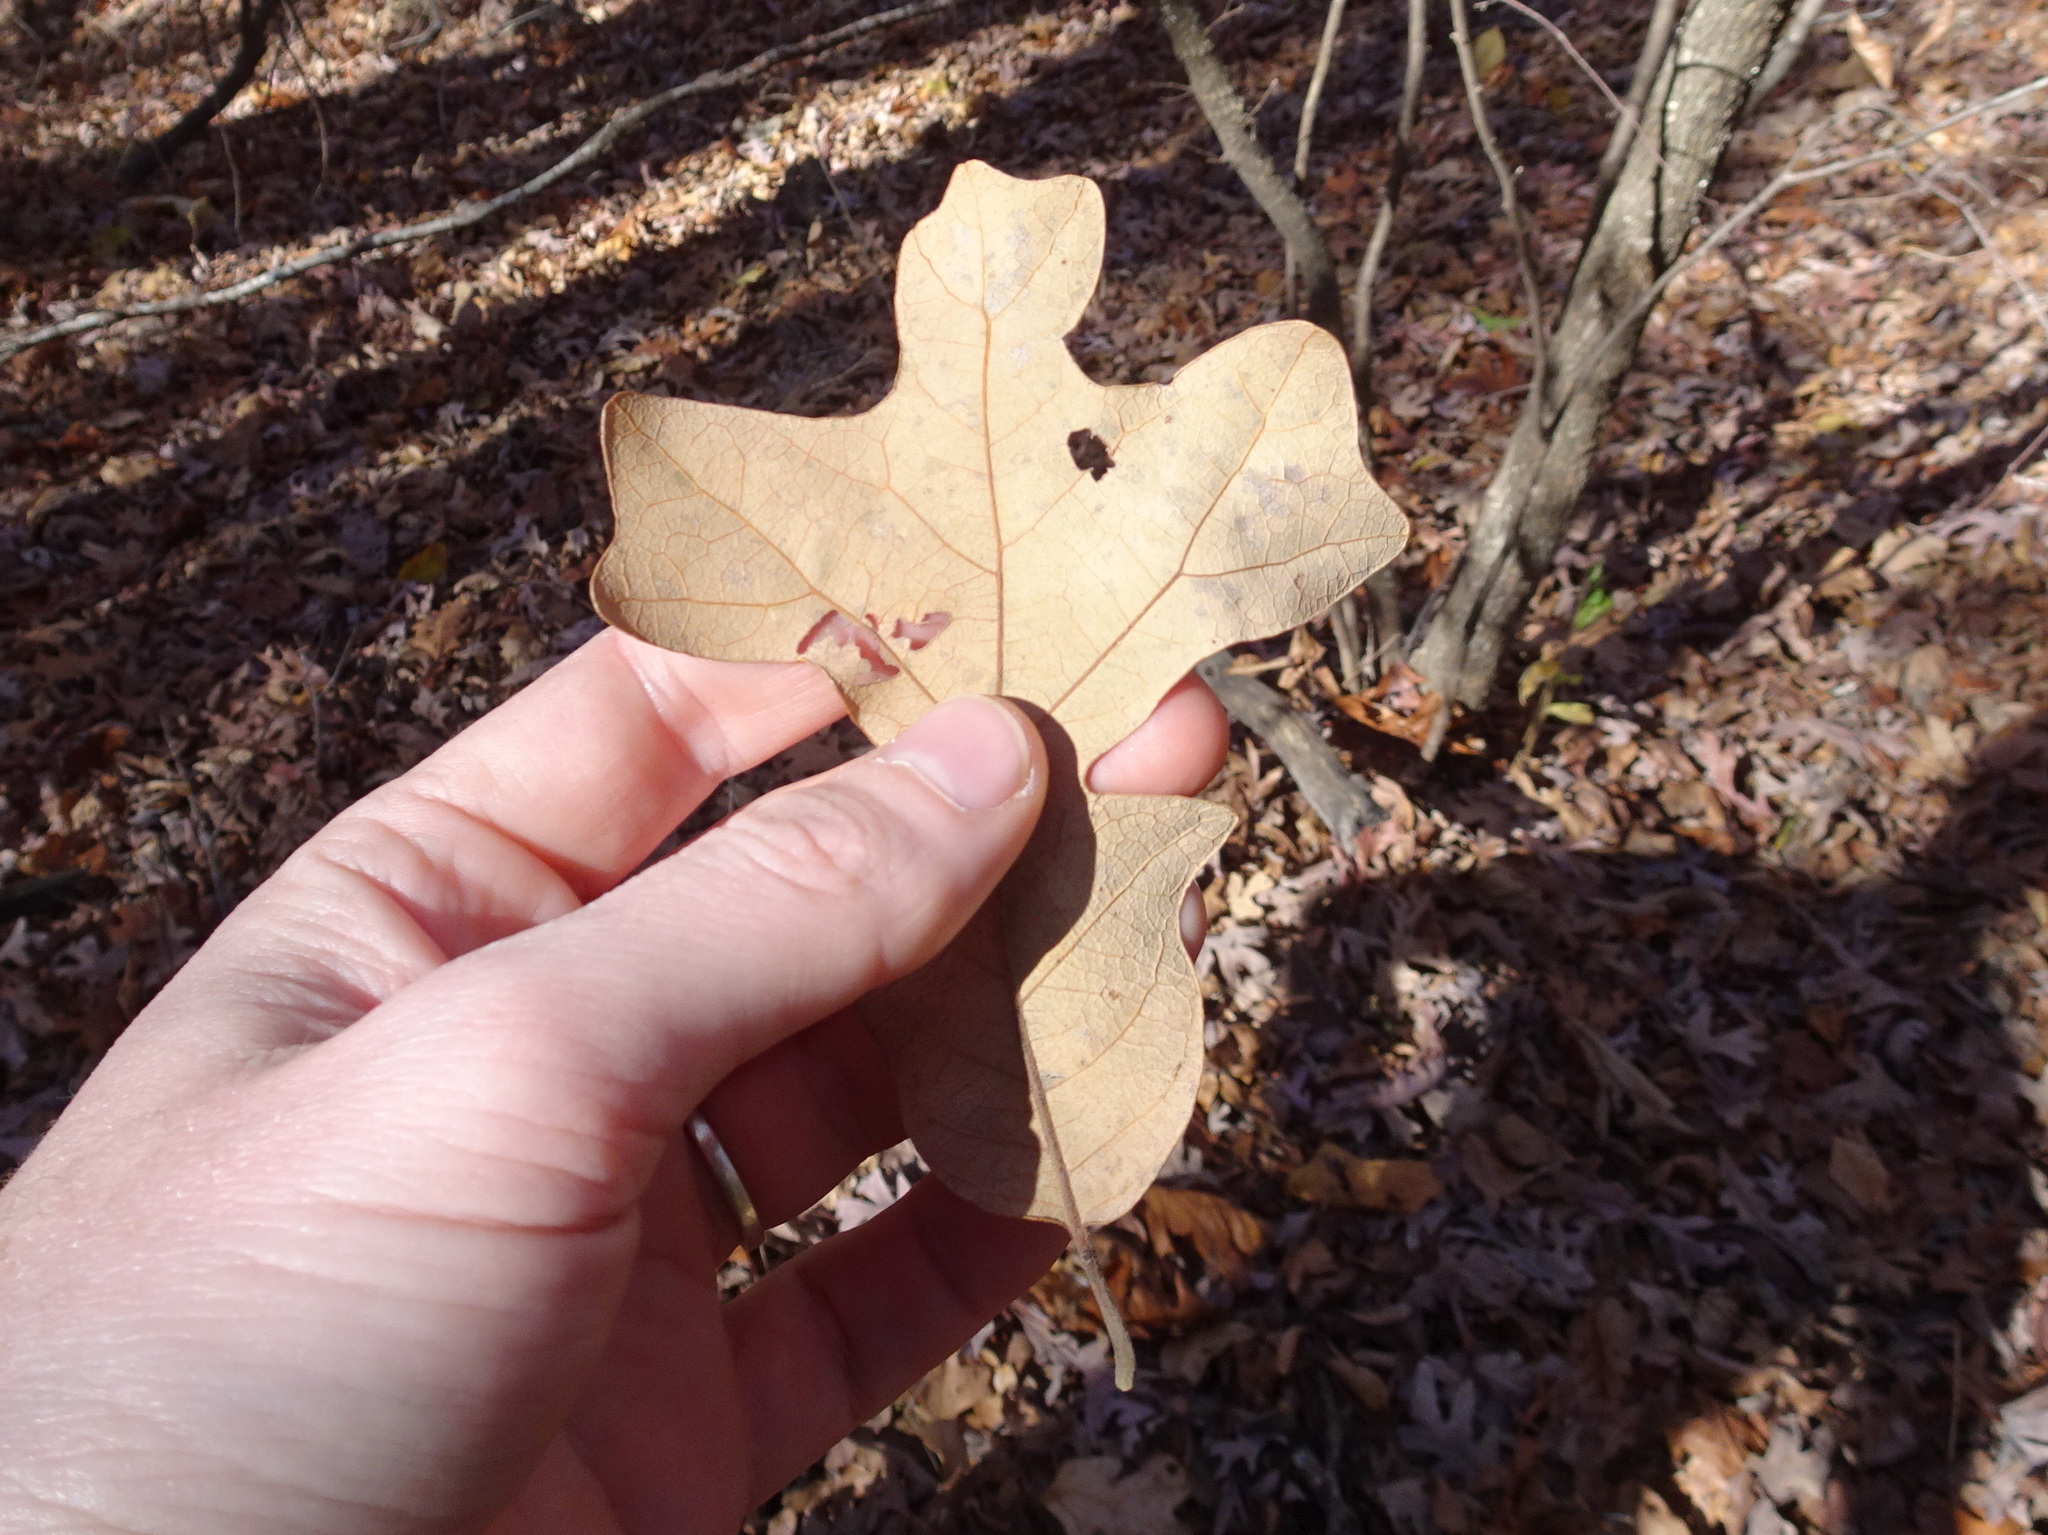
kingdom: Plantae
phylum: Tracheophyta
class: Magnoliopsida
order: Fagales
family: Fagaceae
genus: Quercus
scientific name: Quercus stellata
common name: Post oak
